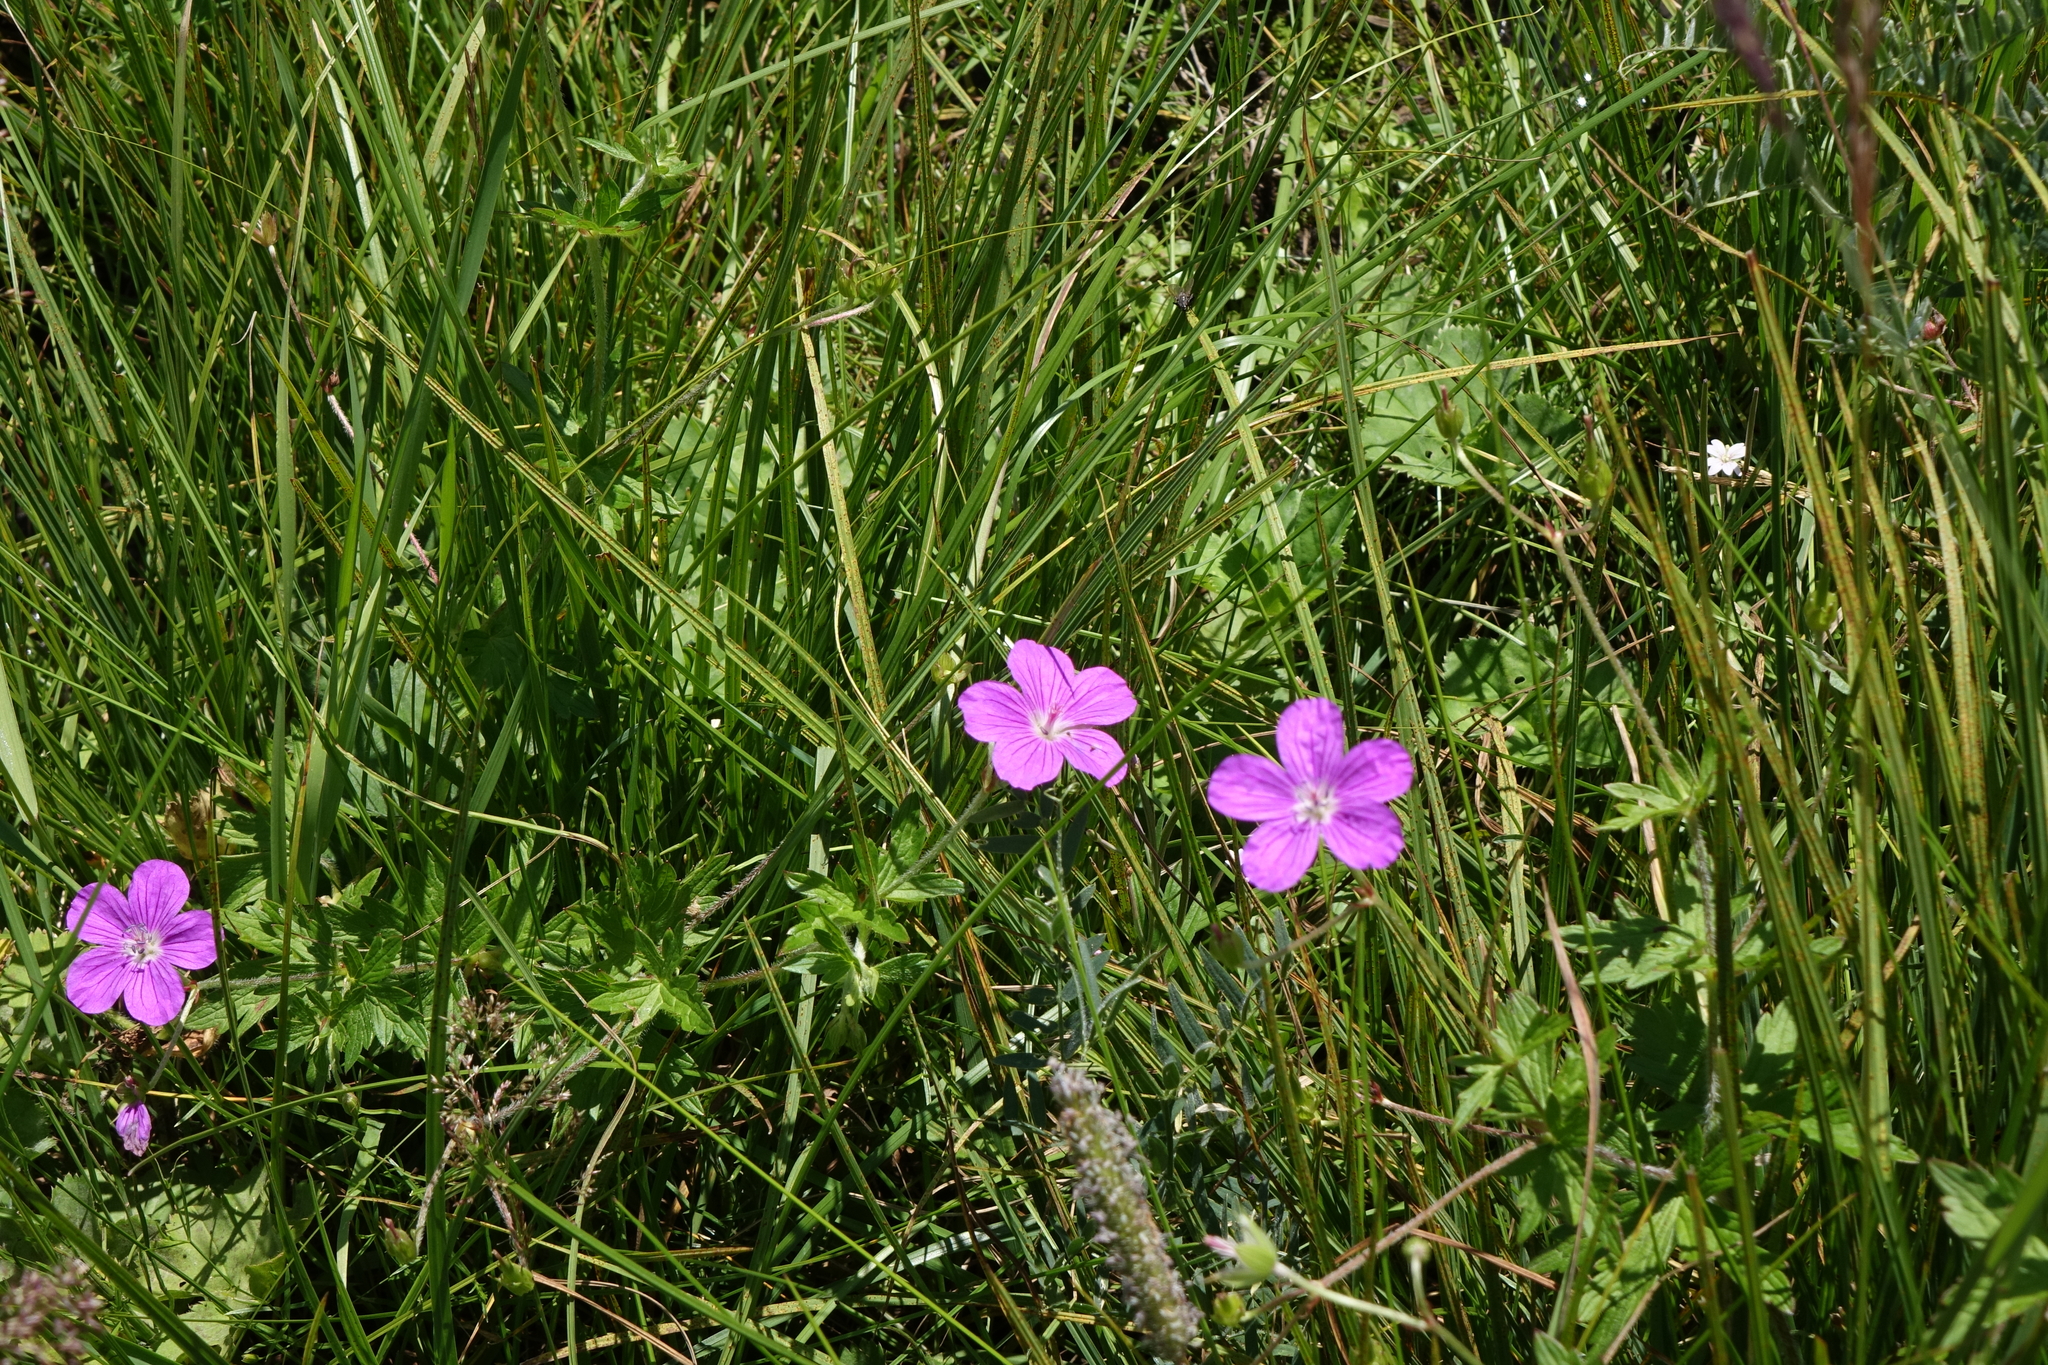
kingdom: Plantae
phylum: Tracheophyta
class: Magnoliopsida
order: Geraniales
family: Geraniaceae
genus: Geranium
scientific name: Geranium palustre
